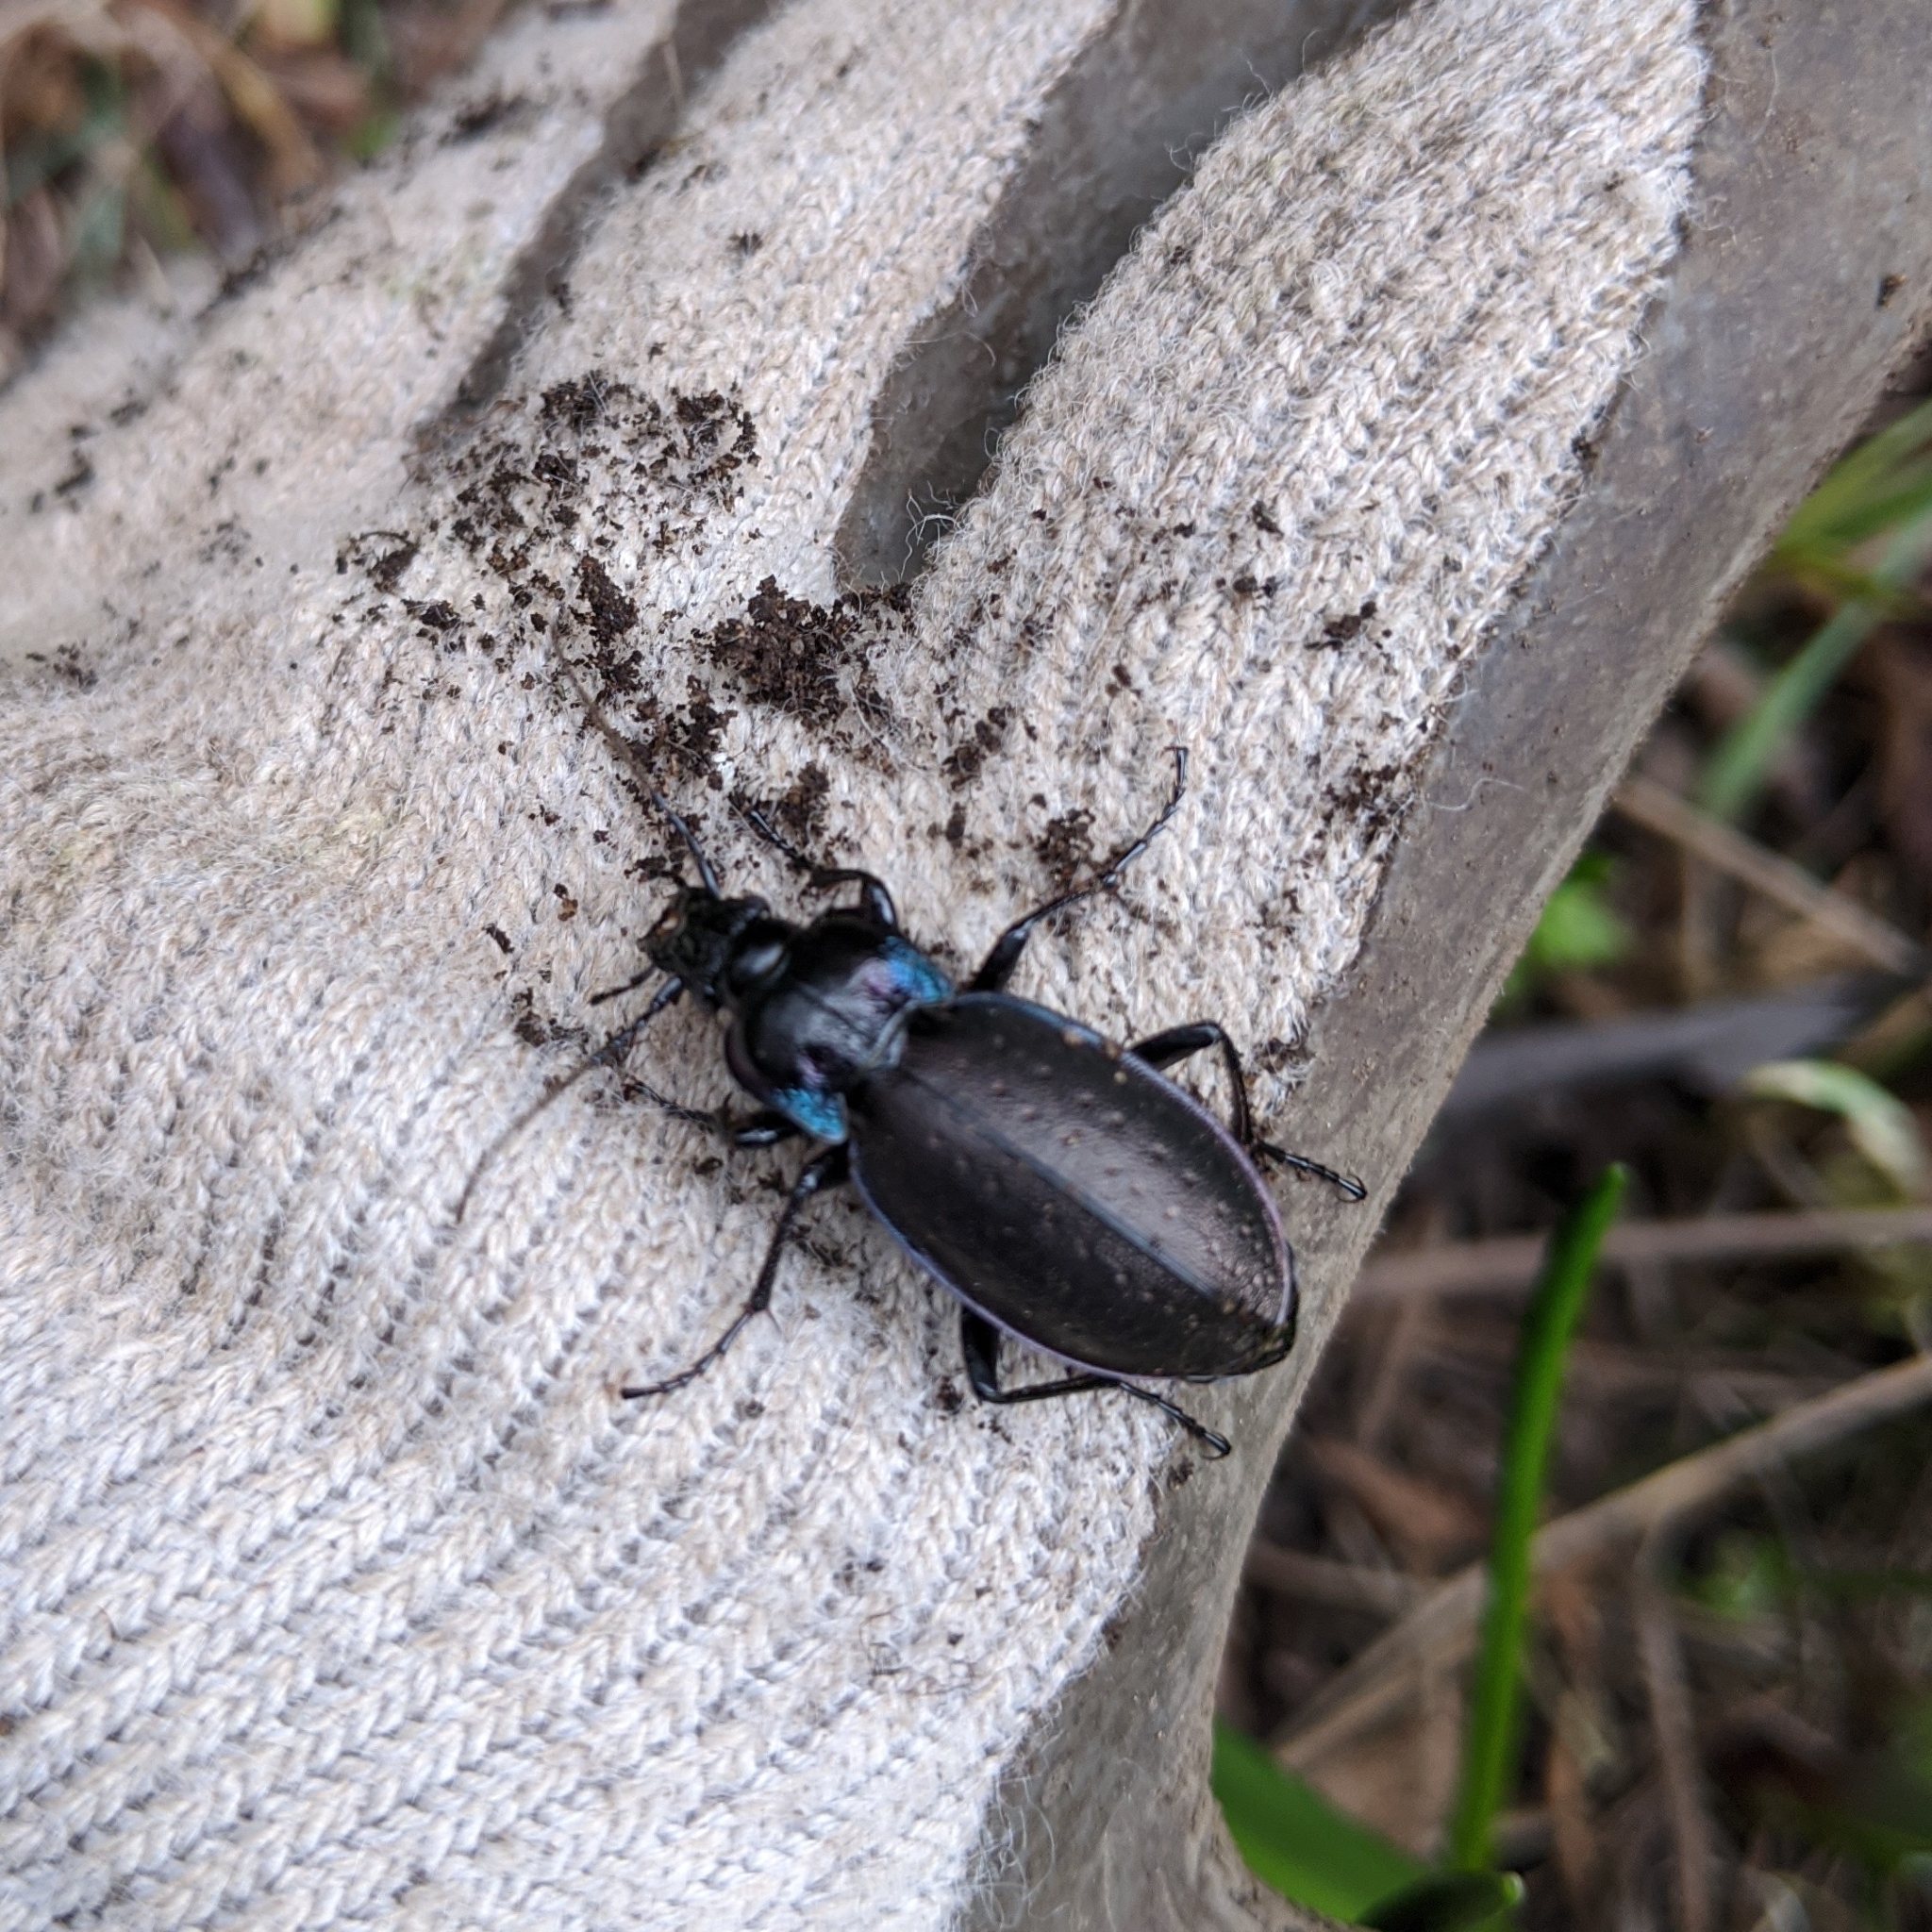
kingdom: Animalia
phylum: Arthropoda
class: Insecta
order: Coleoptera
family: Carabidae
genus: Carabus
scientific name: Carabus nemoralis
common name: European ground beetle
